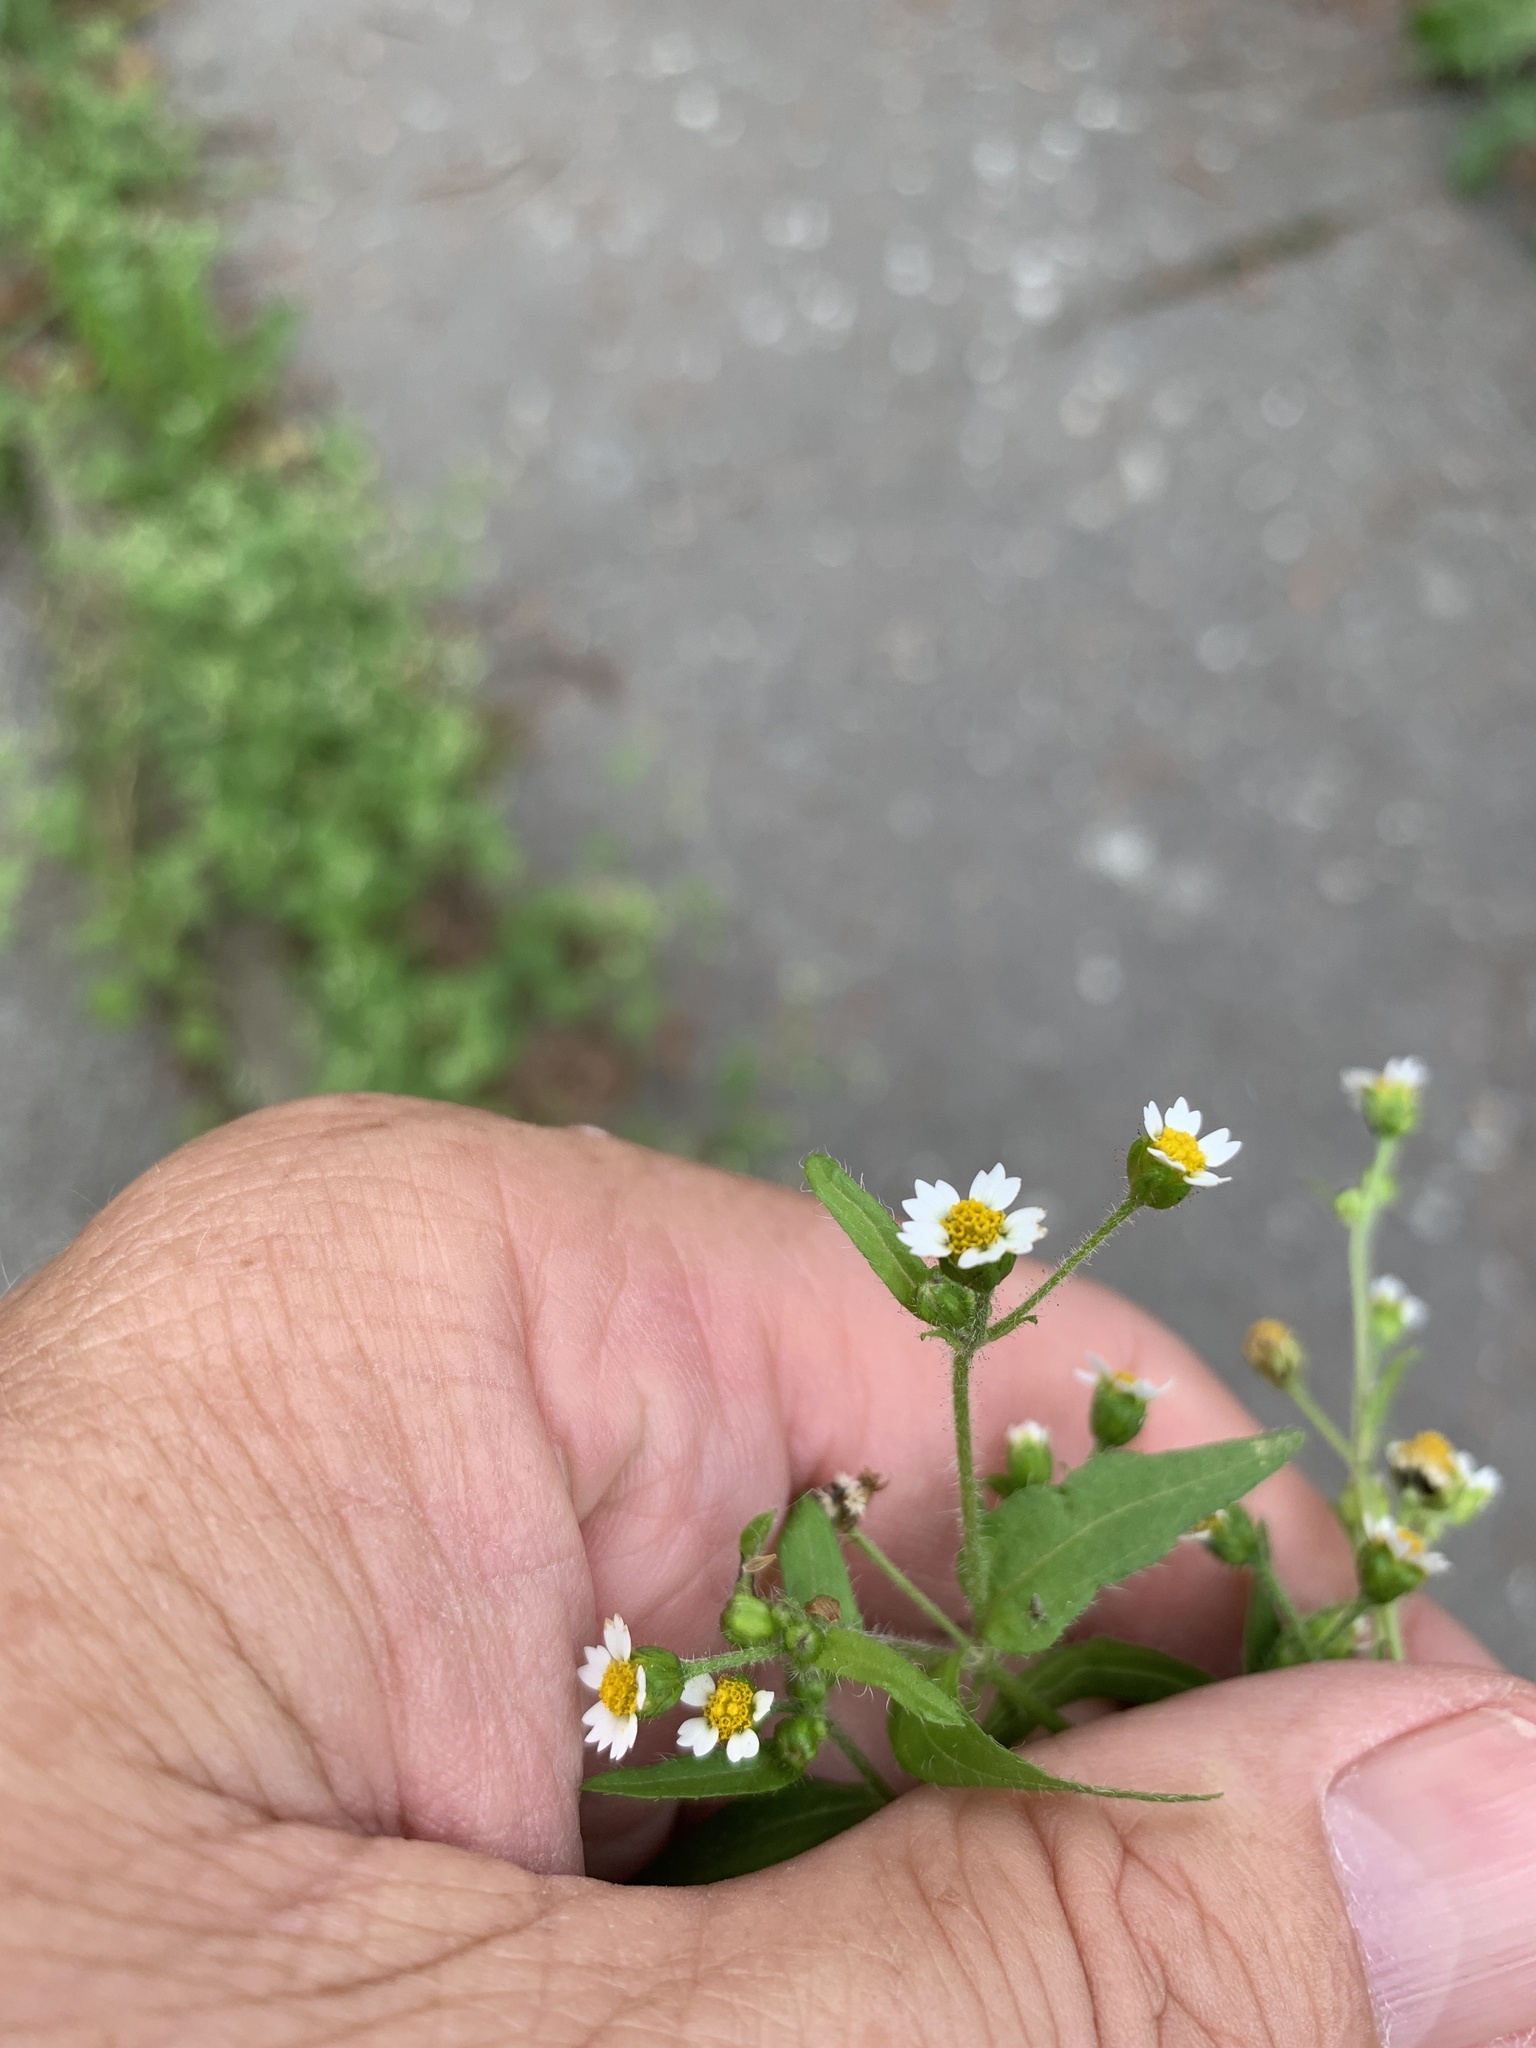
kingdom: Plantae
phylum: Tracheophyta
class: Magnoliopsida
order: Asterales
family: Asteraceae
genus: Galinsoga
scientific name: Galinsoga quadriradiata
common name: Shaggy soldier
